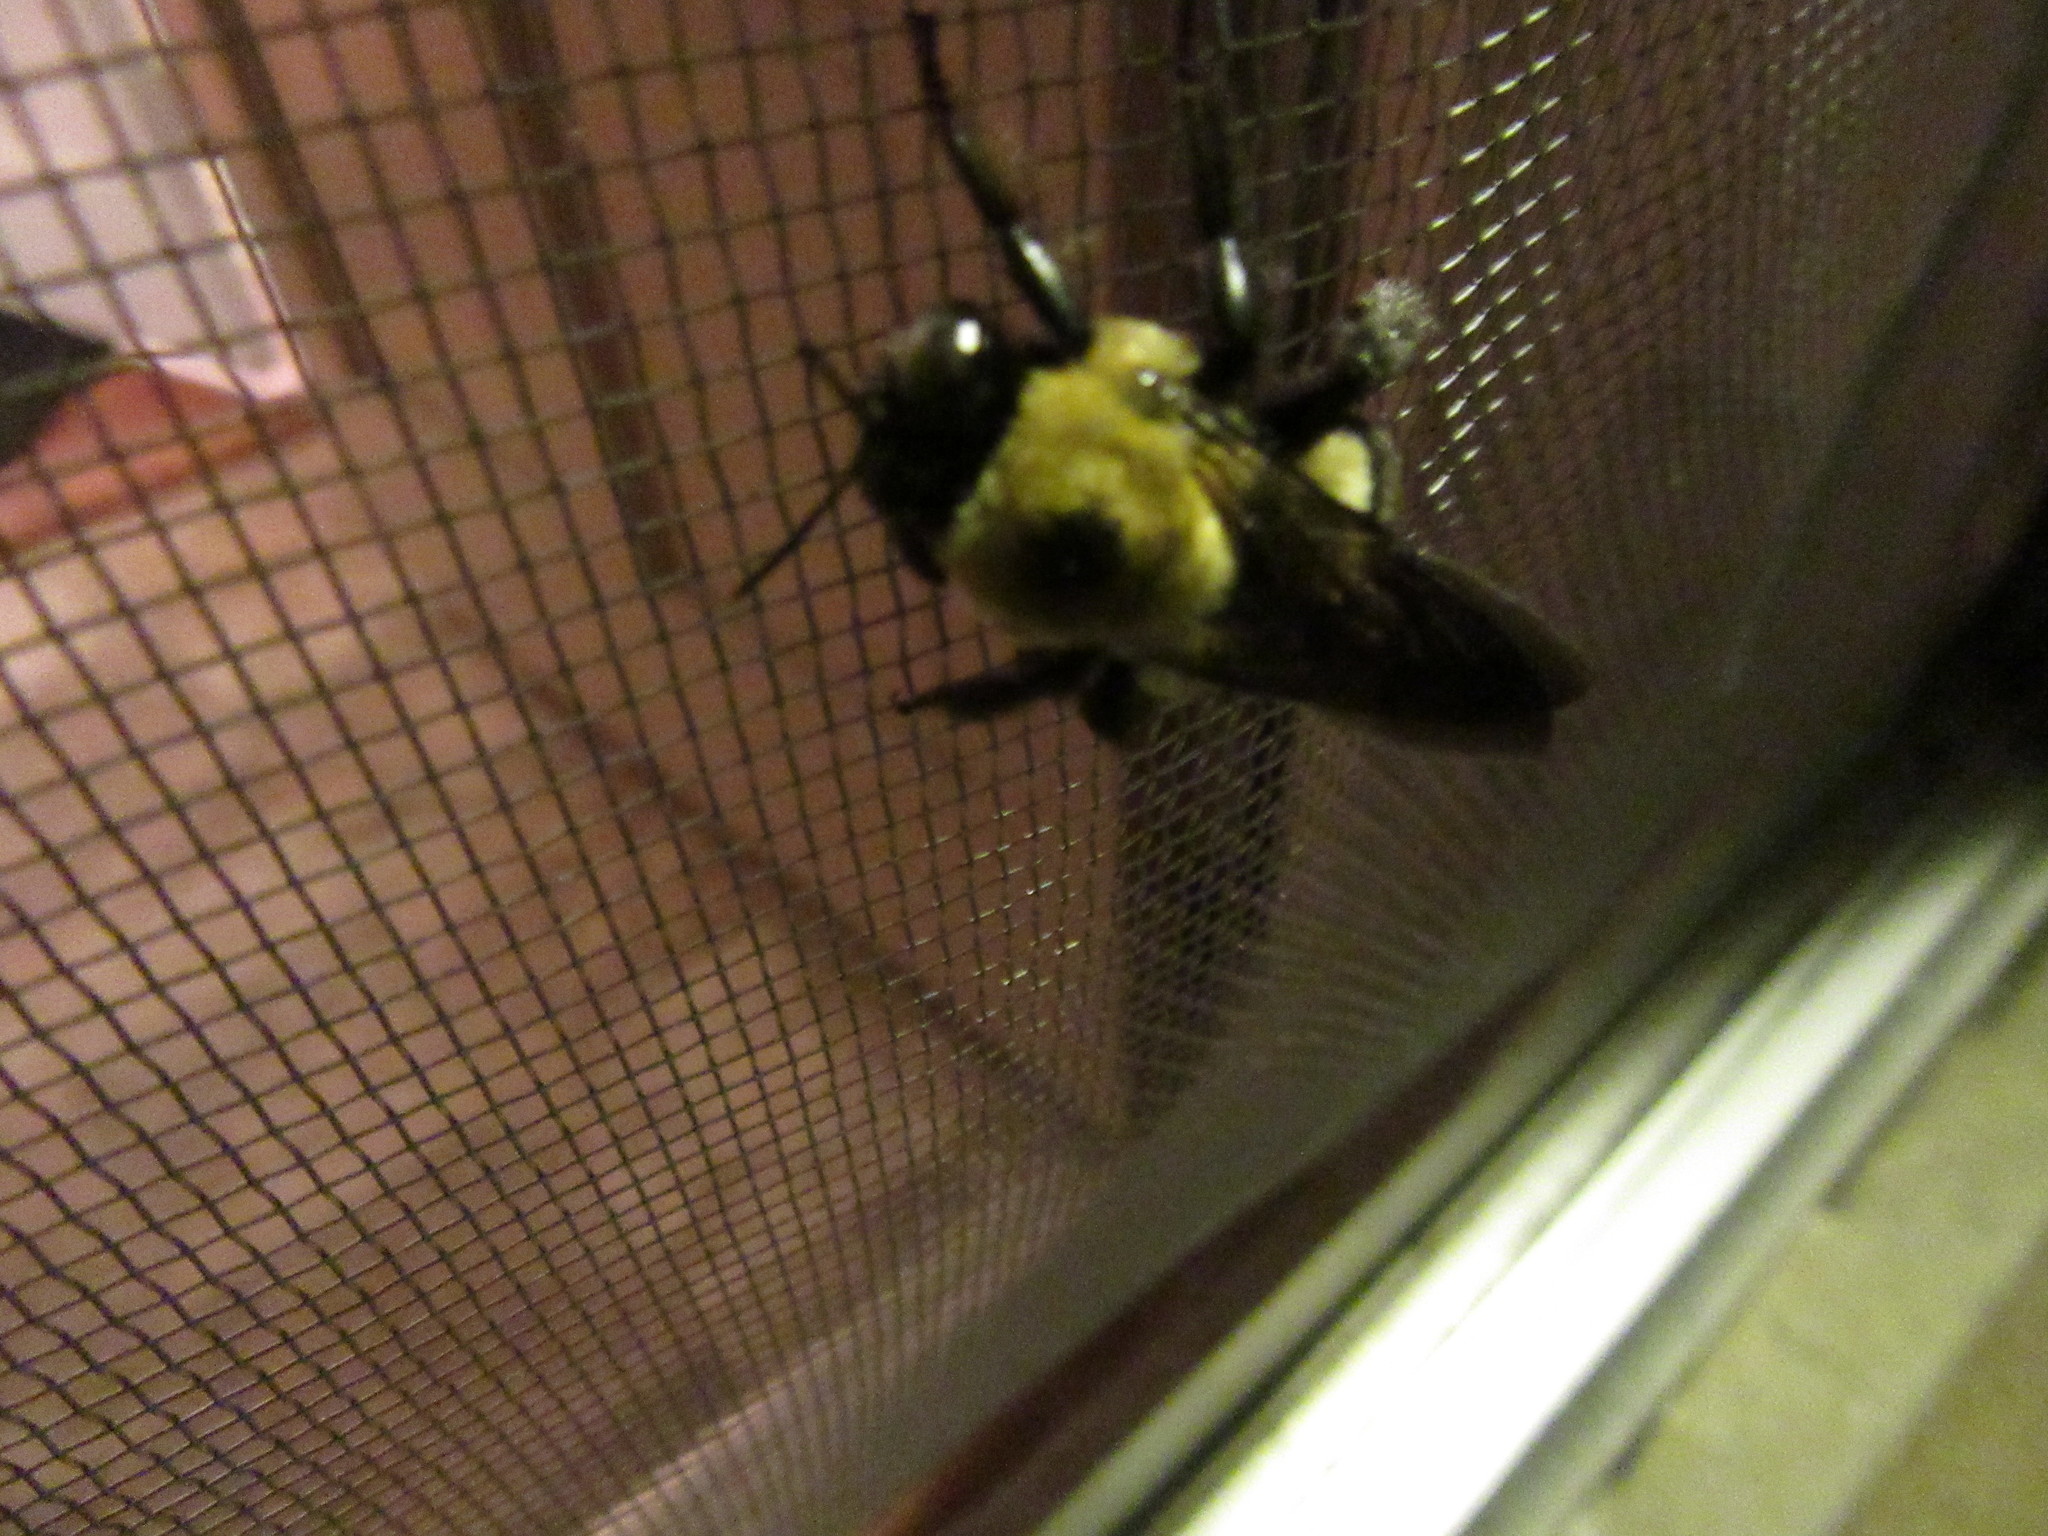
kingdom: Animalia
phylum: Arthropoda
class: Insecta
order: Hymenoptera
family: Apidae
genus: Xylocopa
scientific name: Xylocopa virginica
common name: Carpenter bee
